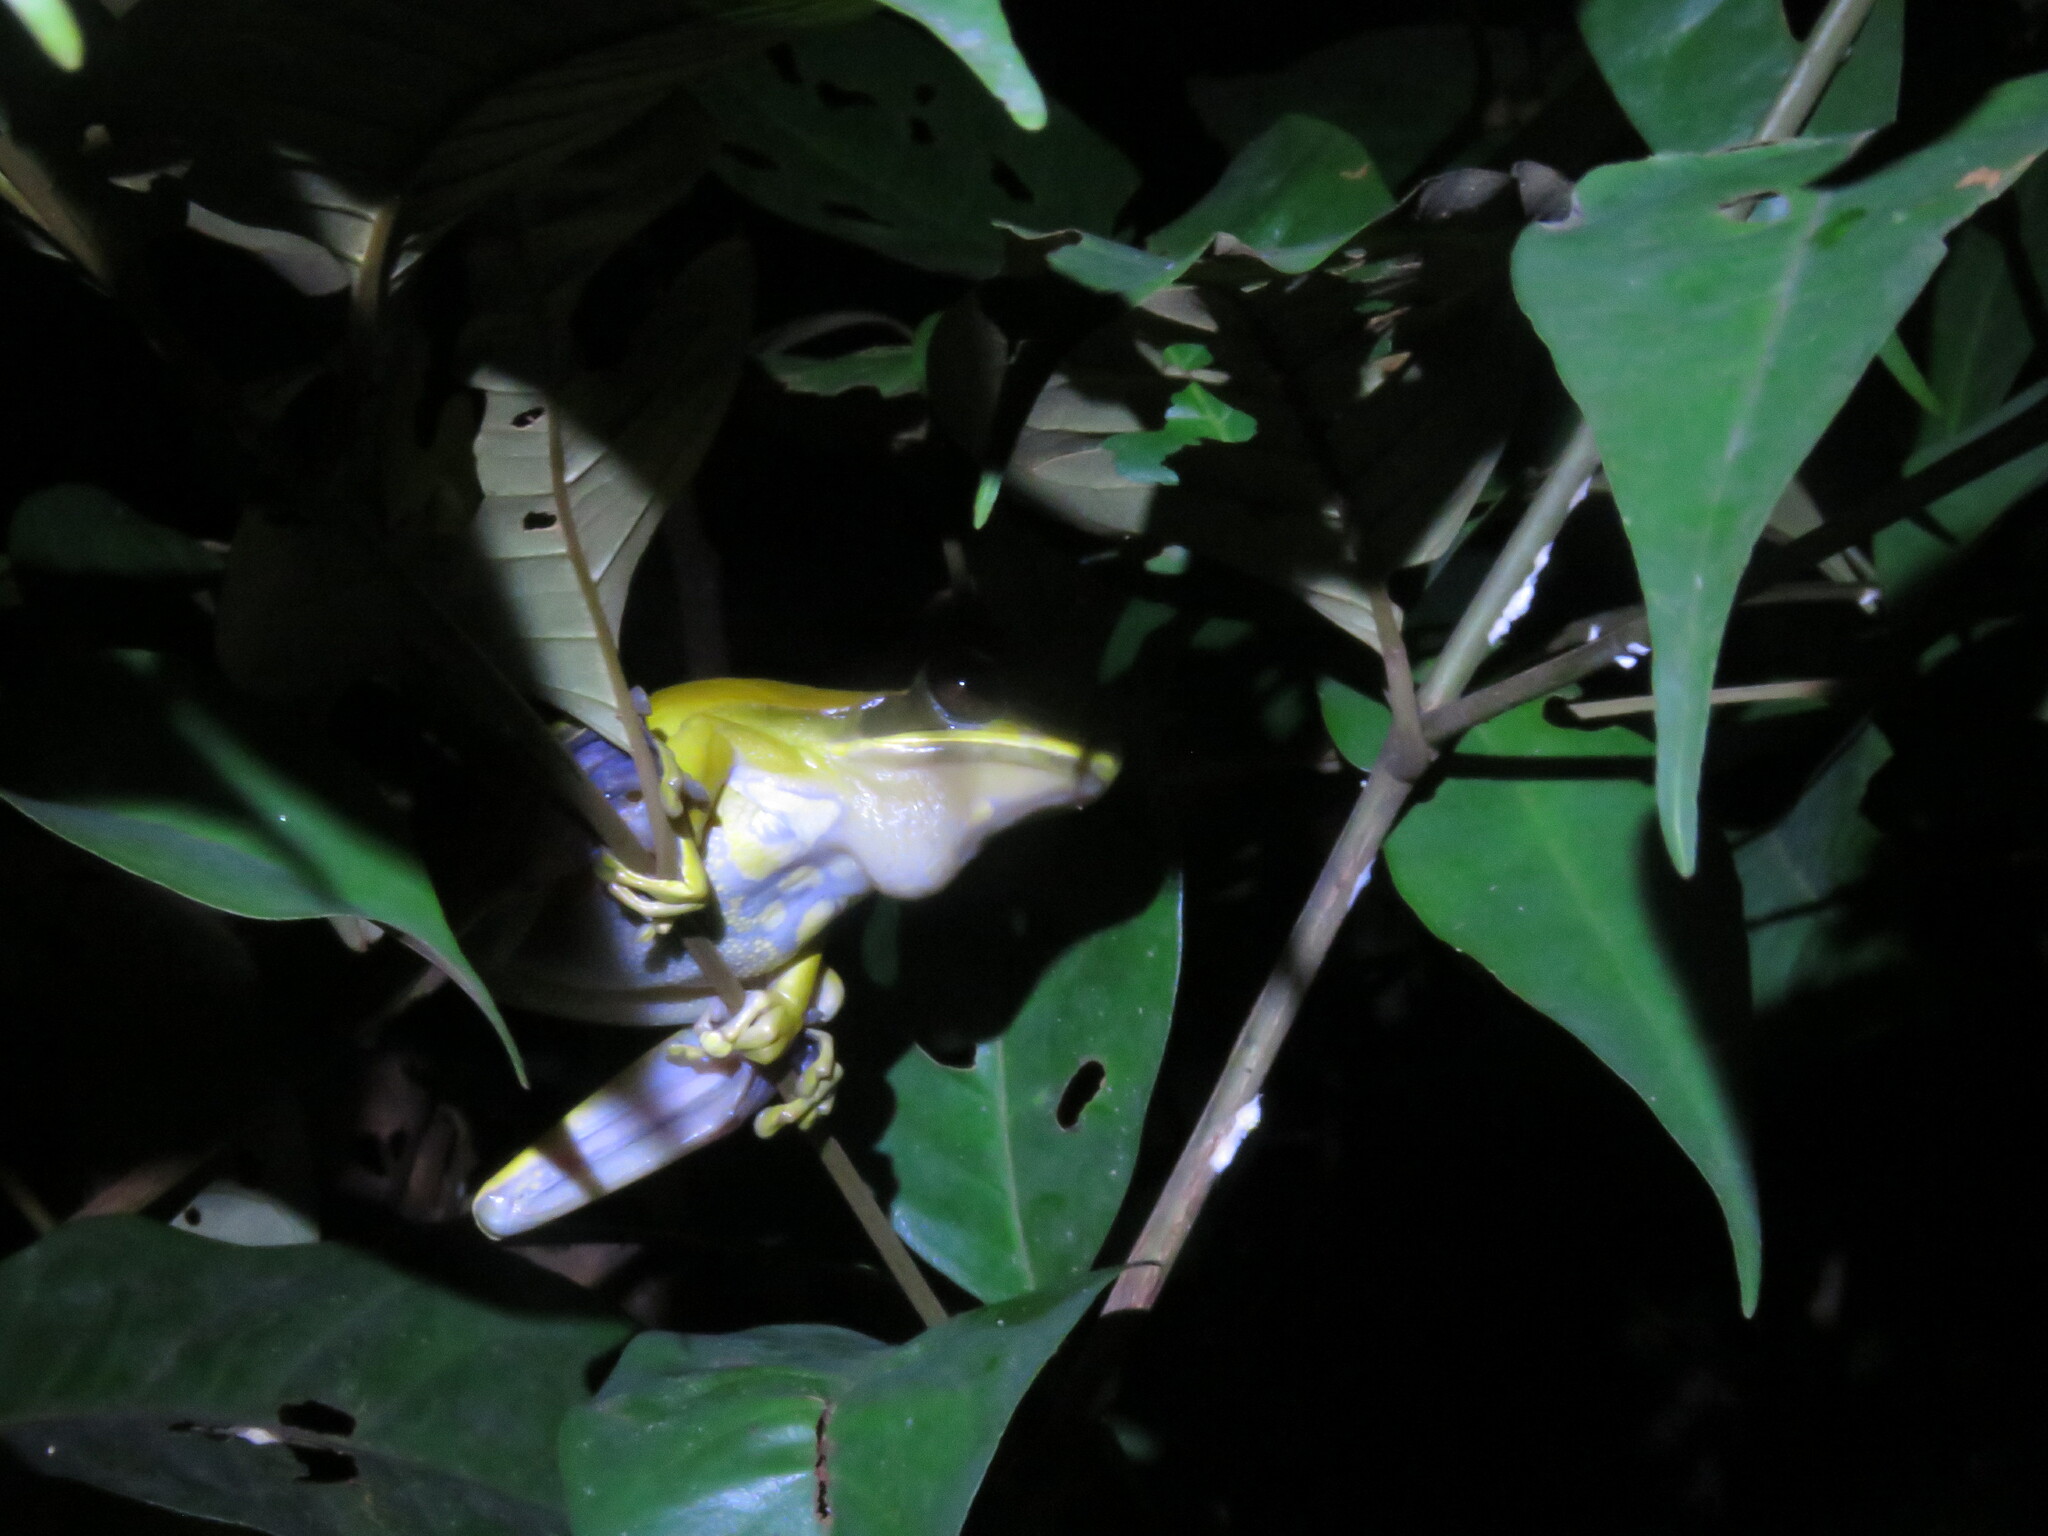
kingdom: Animalia
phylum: Chordata
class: Amphibia
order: Anura
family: Hylidae
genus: Boana
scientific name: Boana lanciformis
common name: Rana lanceolada commún
